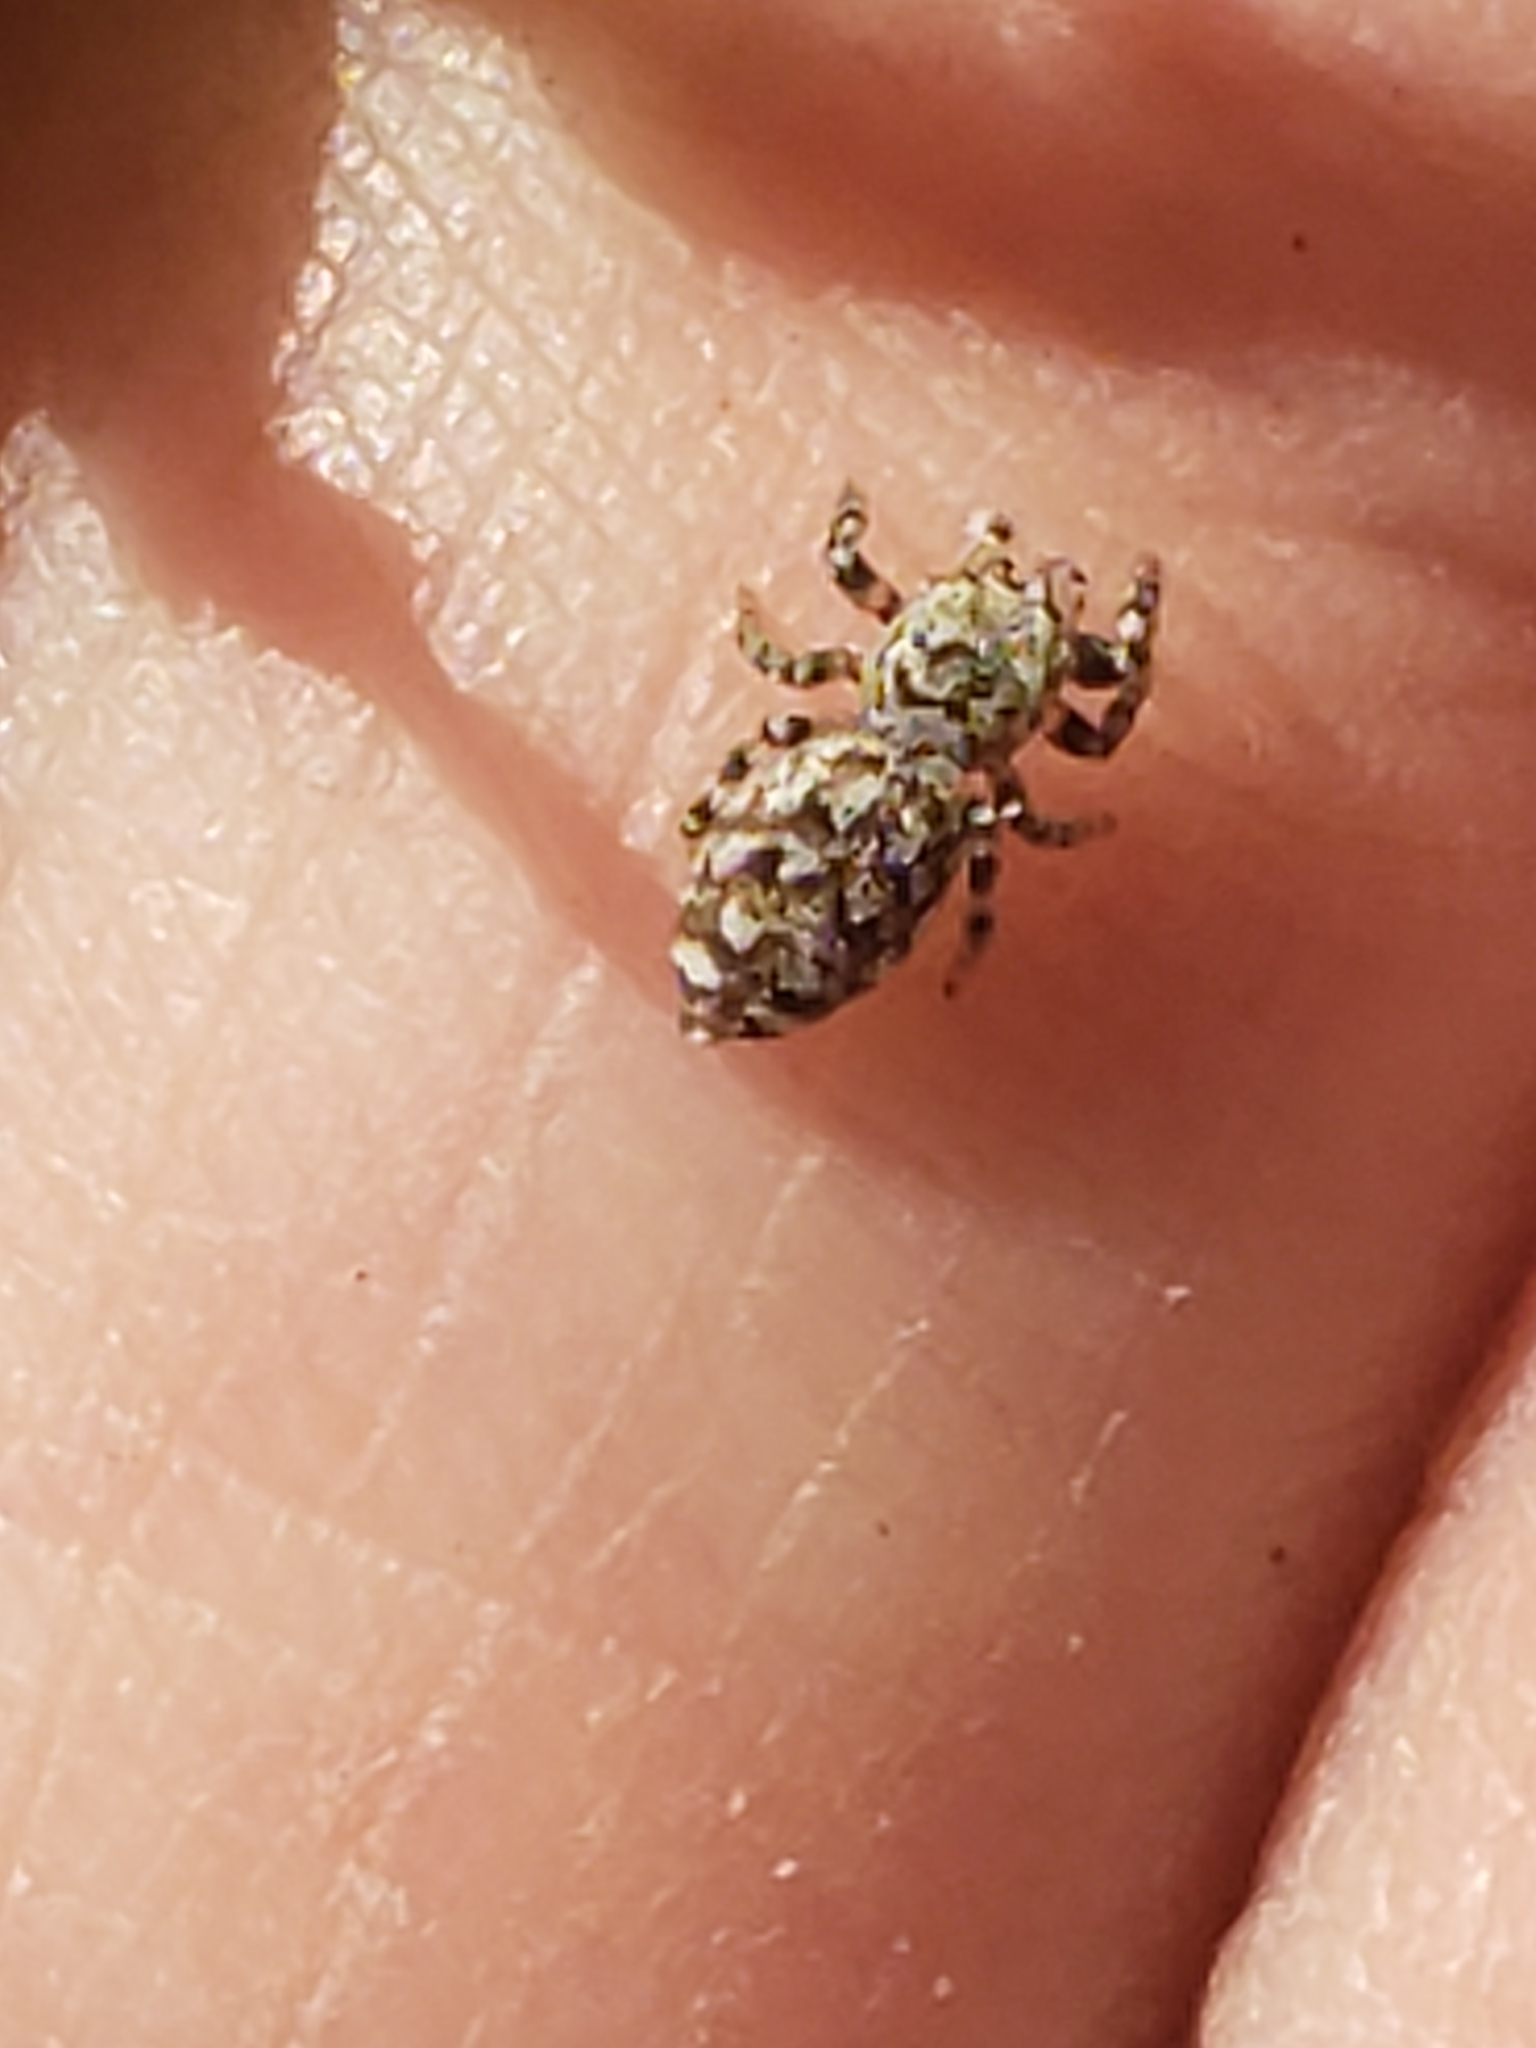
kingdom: Animalia
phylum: Arthropoda
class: Arachnida
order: Araneae
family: Salticidae
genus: Pelegrina
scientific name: Pelegrina galathea
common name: Jumping spiders
